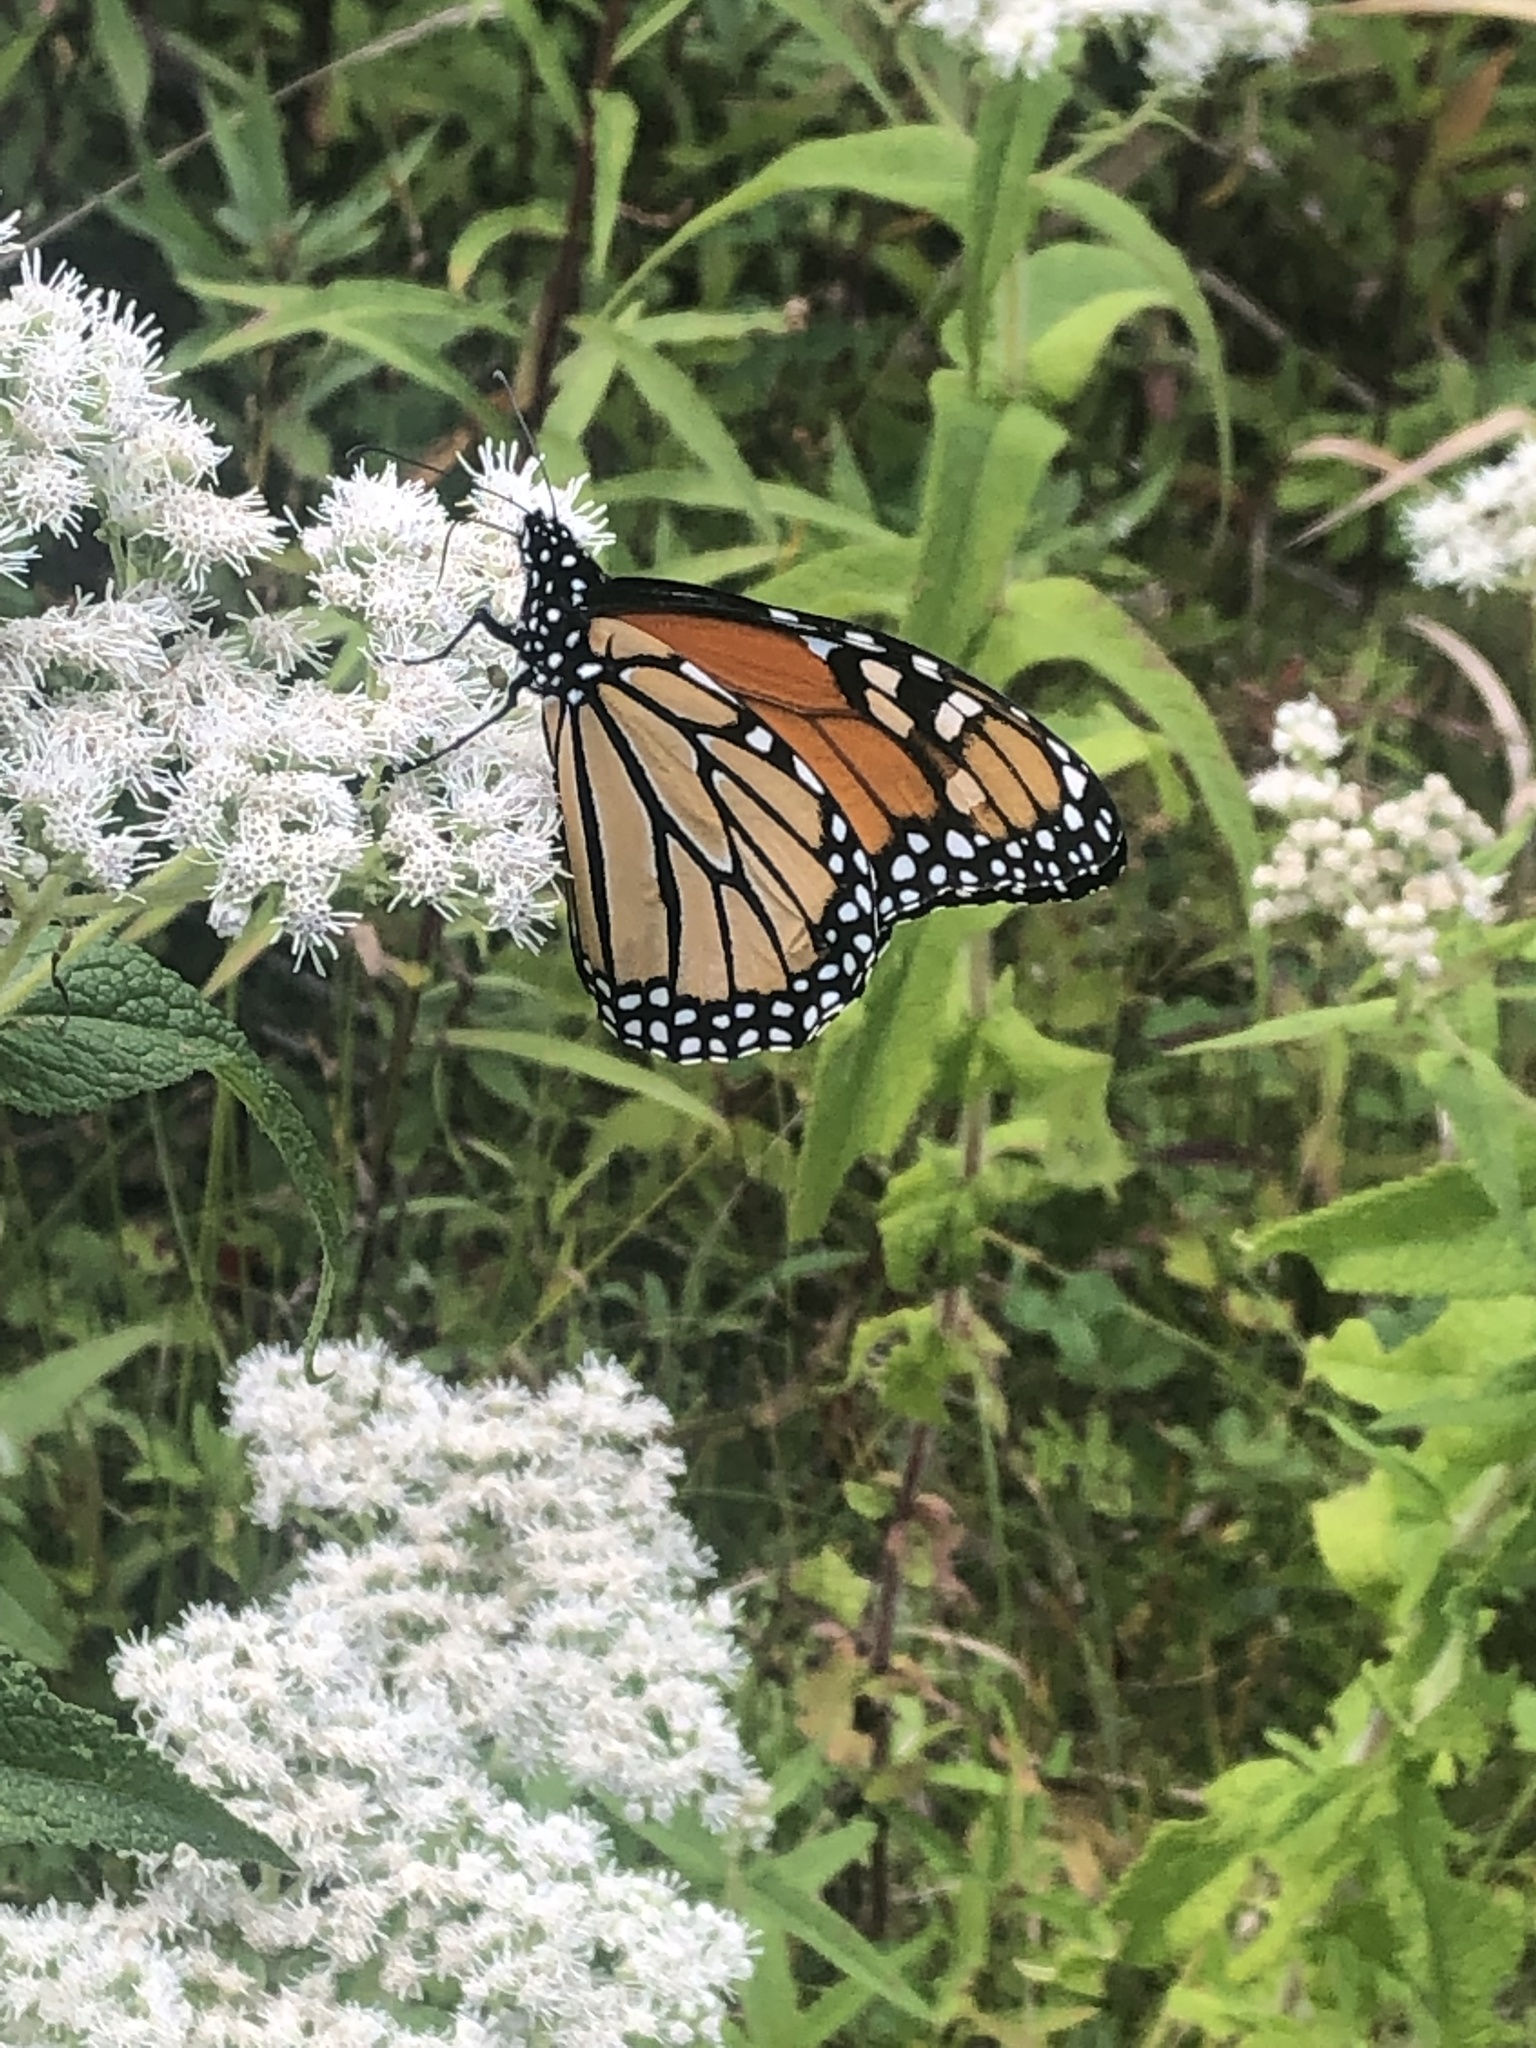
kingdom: Animalia
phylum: Arthropoda
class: Insecta
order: Lepidoptera
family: Nymphalidae
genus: Danaus
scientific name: Danaus plexippus
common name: Monarch
